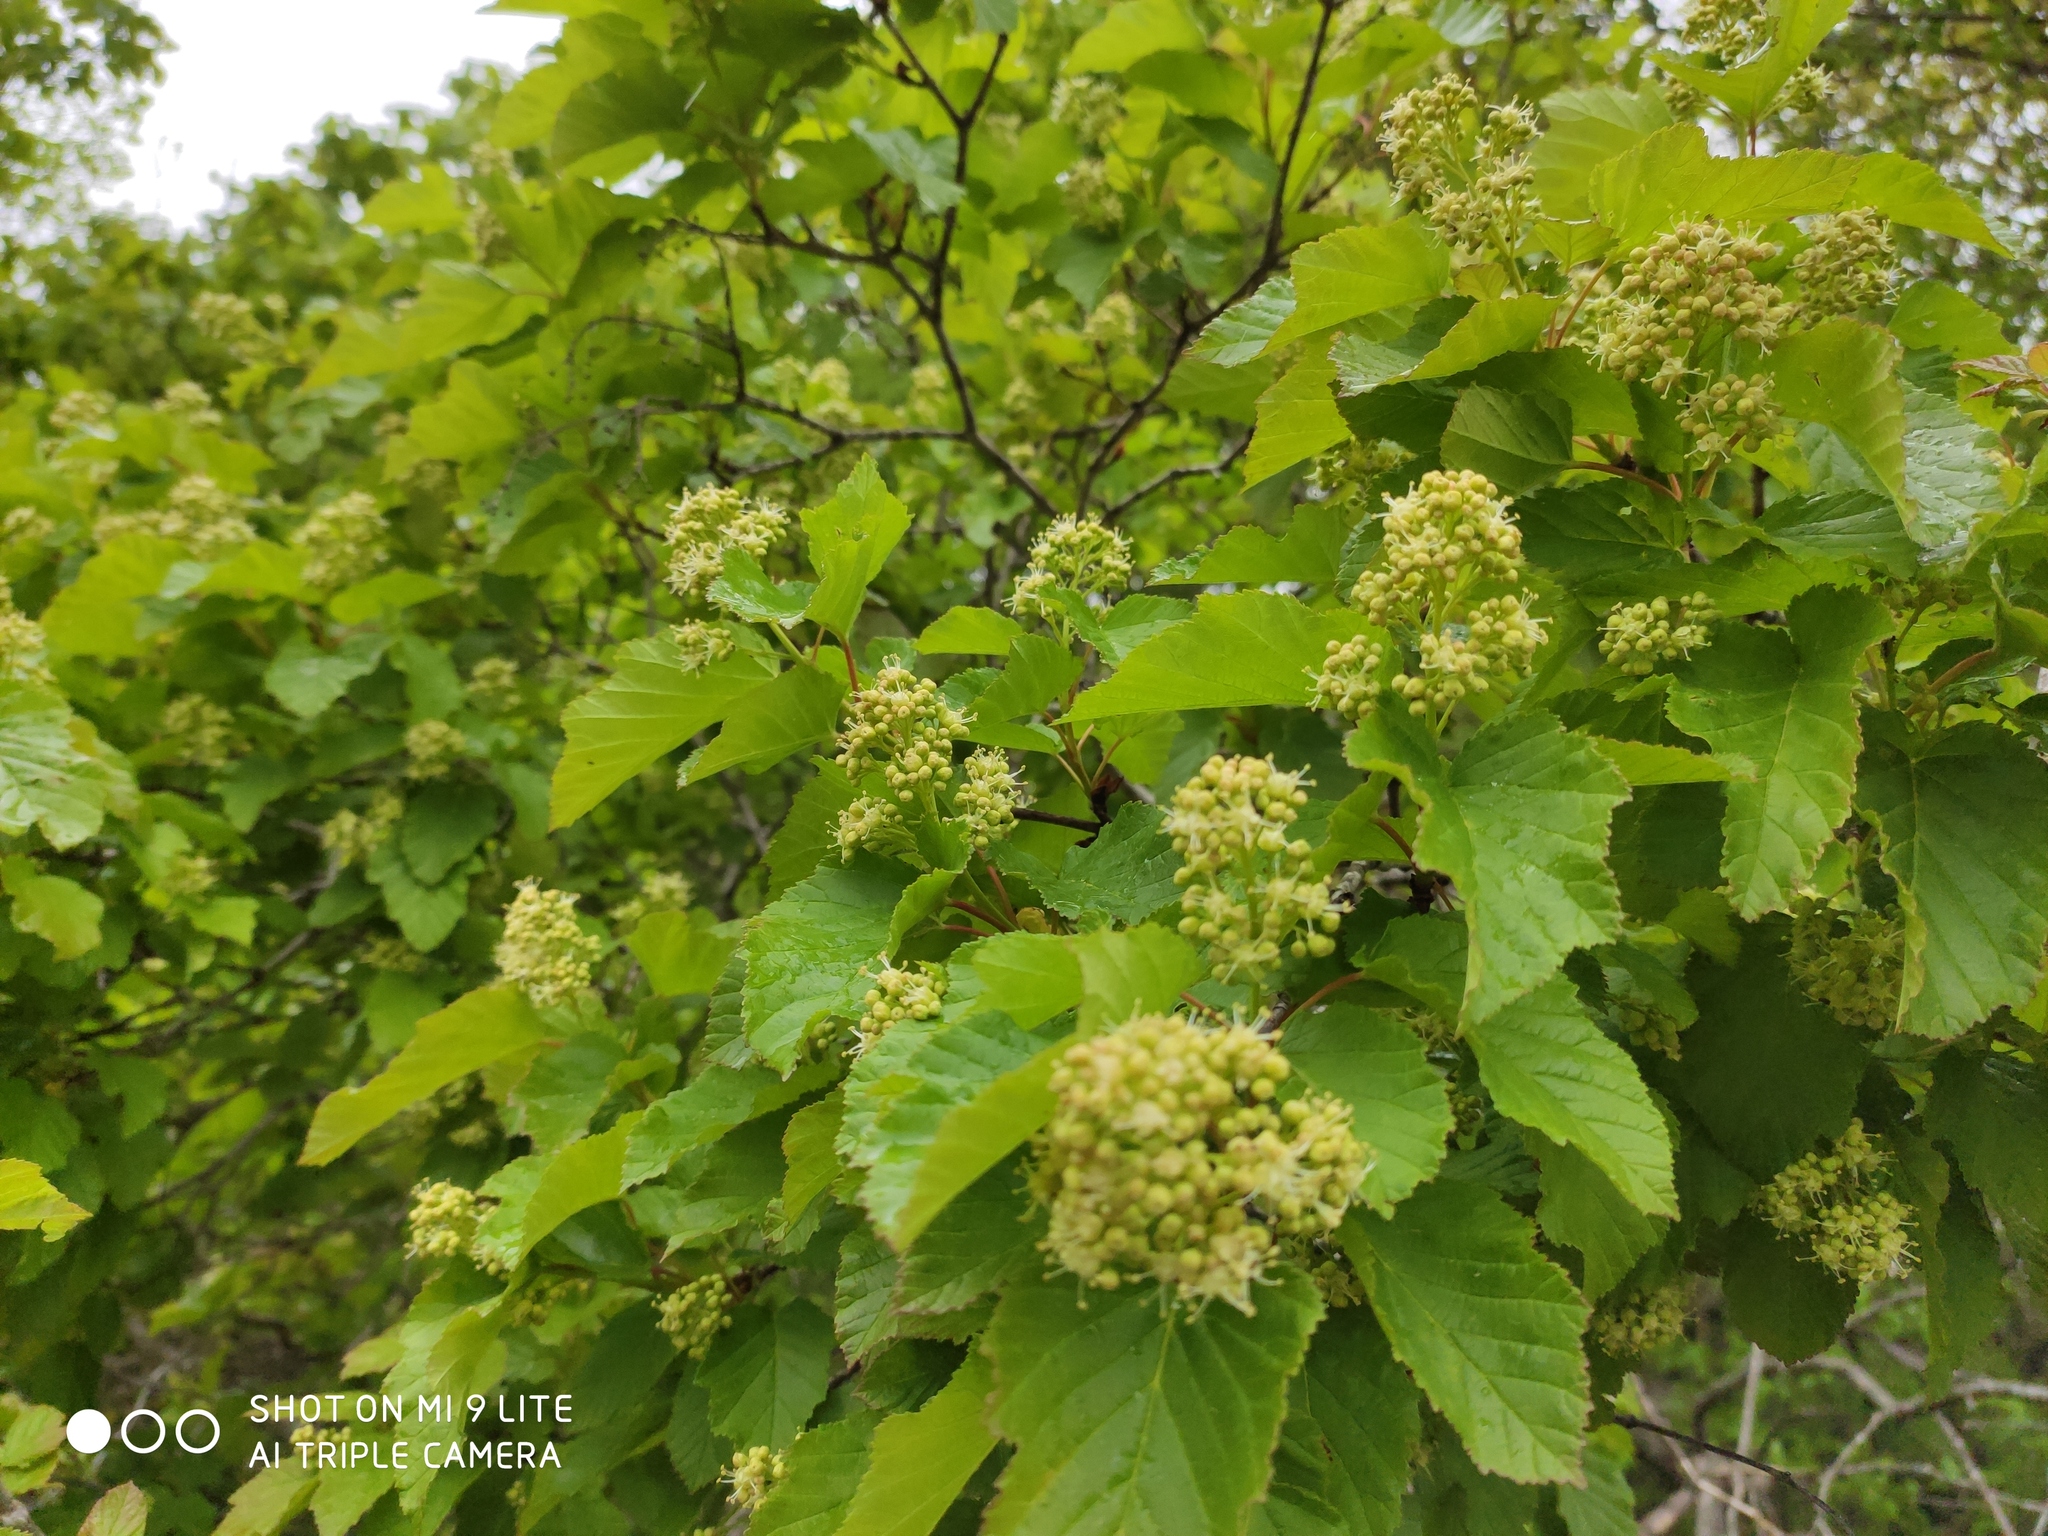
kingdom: Plantae
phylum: Tracheophyta
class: Magnoliopsida
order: Sapindales
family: Sapindaceae
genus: Acer
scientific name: Acer tataricum
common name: Tartar maple
